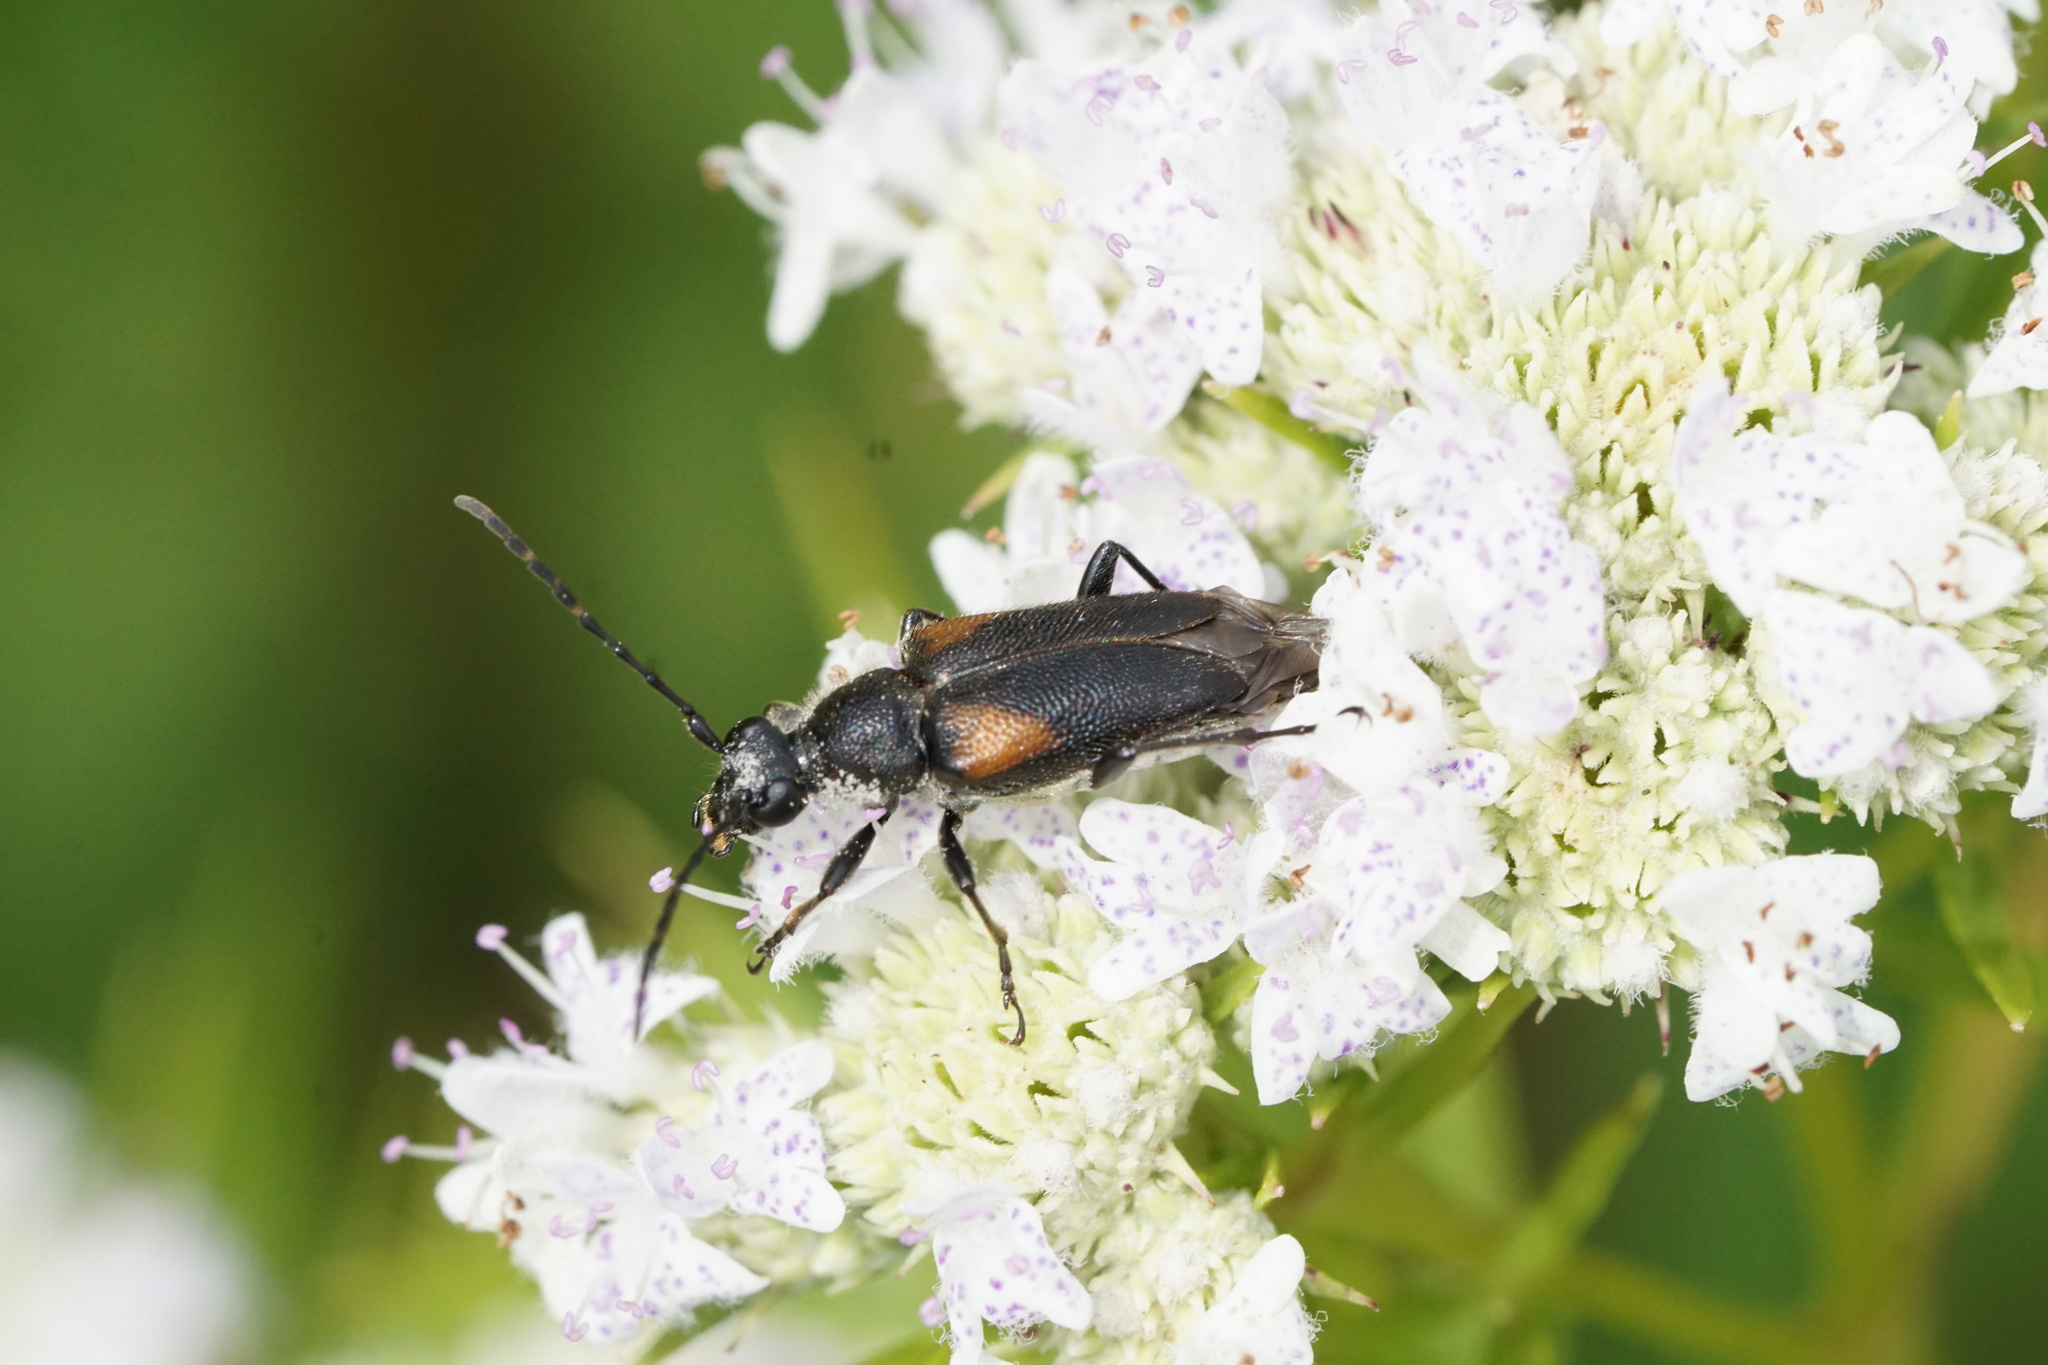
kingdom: Animalia
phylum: Arthropoda
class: Insecta
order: Coleoptera
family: Cerambycidae
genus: Brachyleptura
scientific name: Brachyleptura vagans
